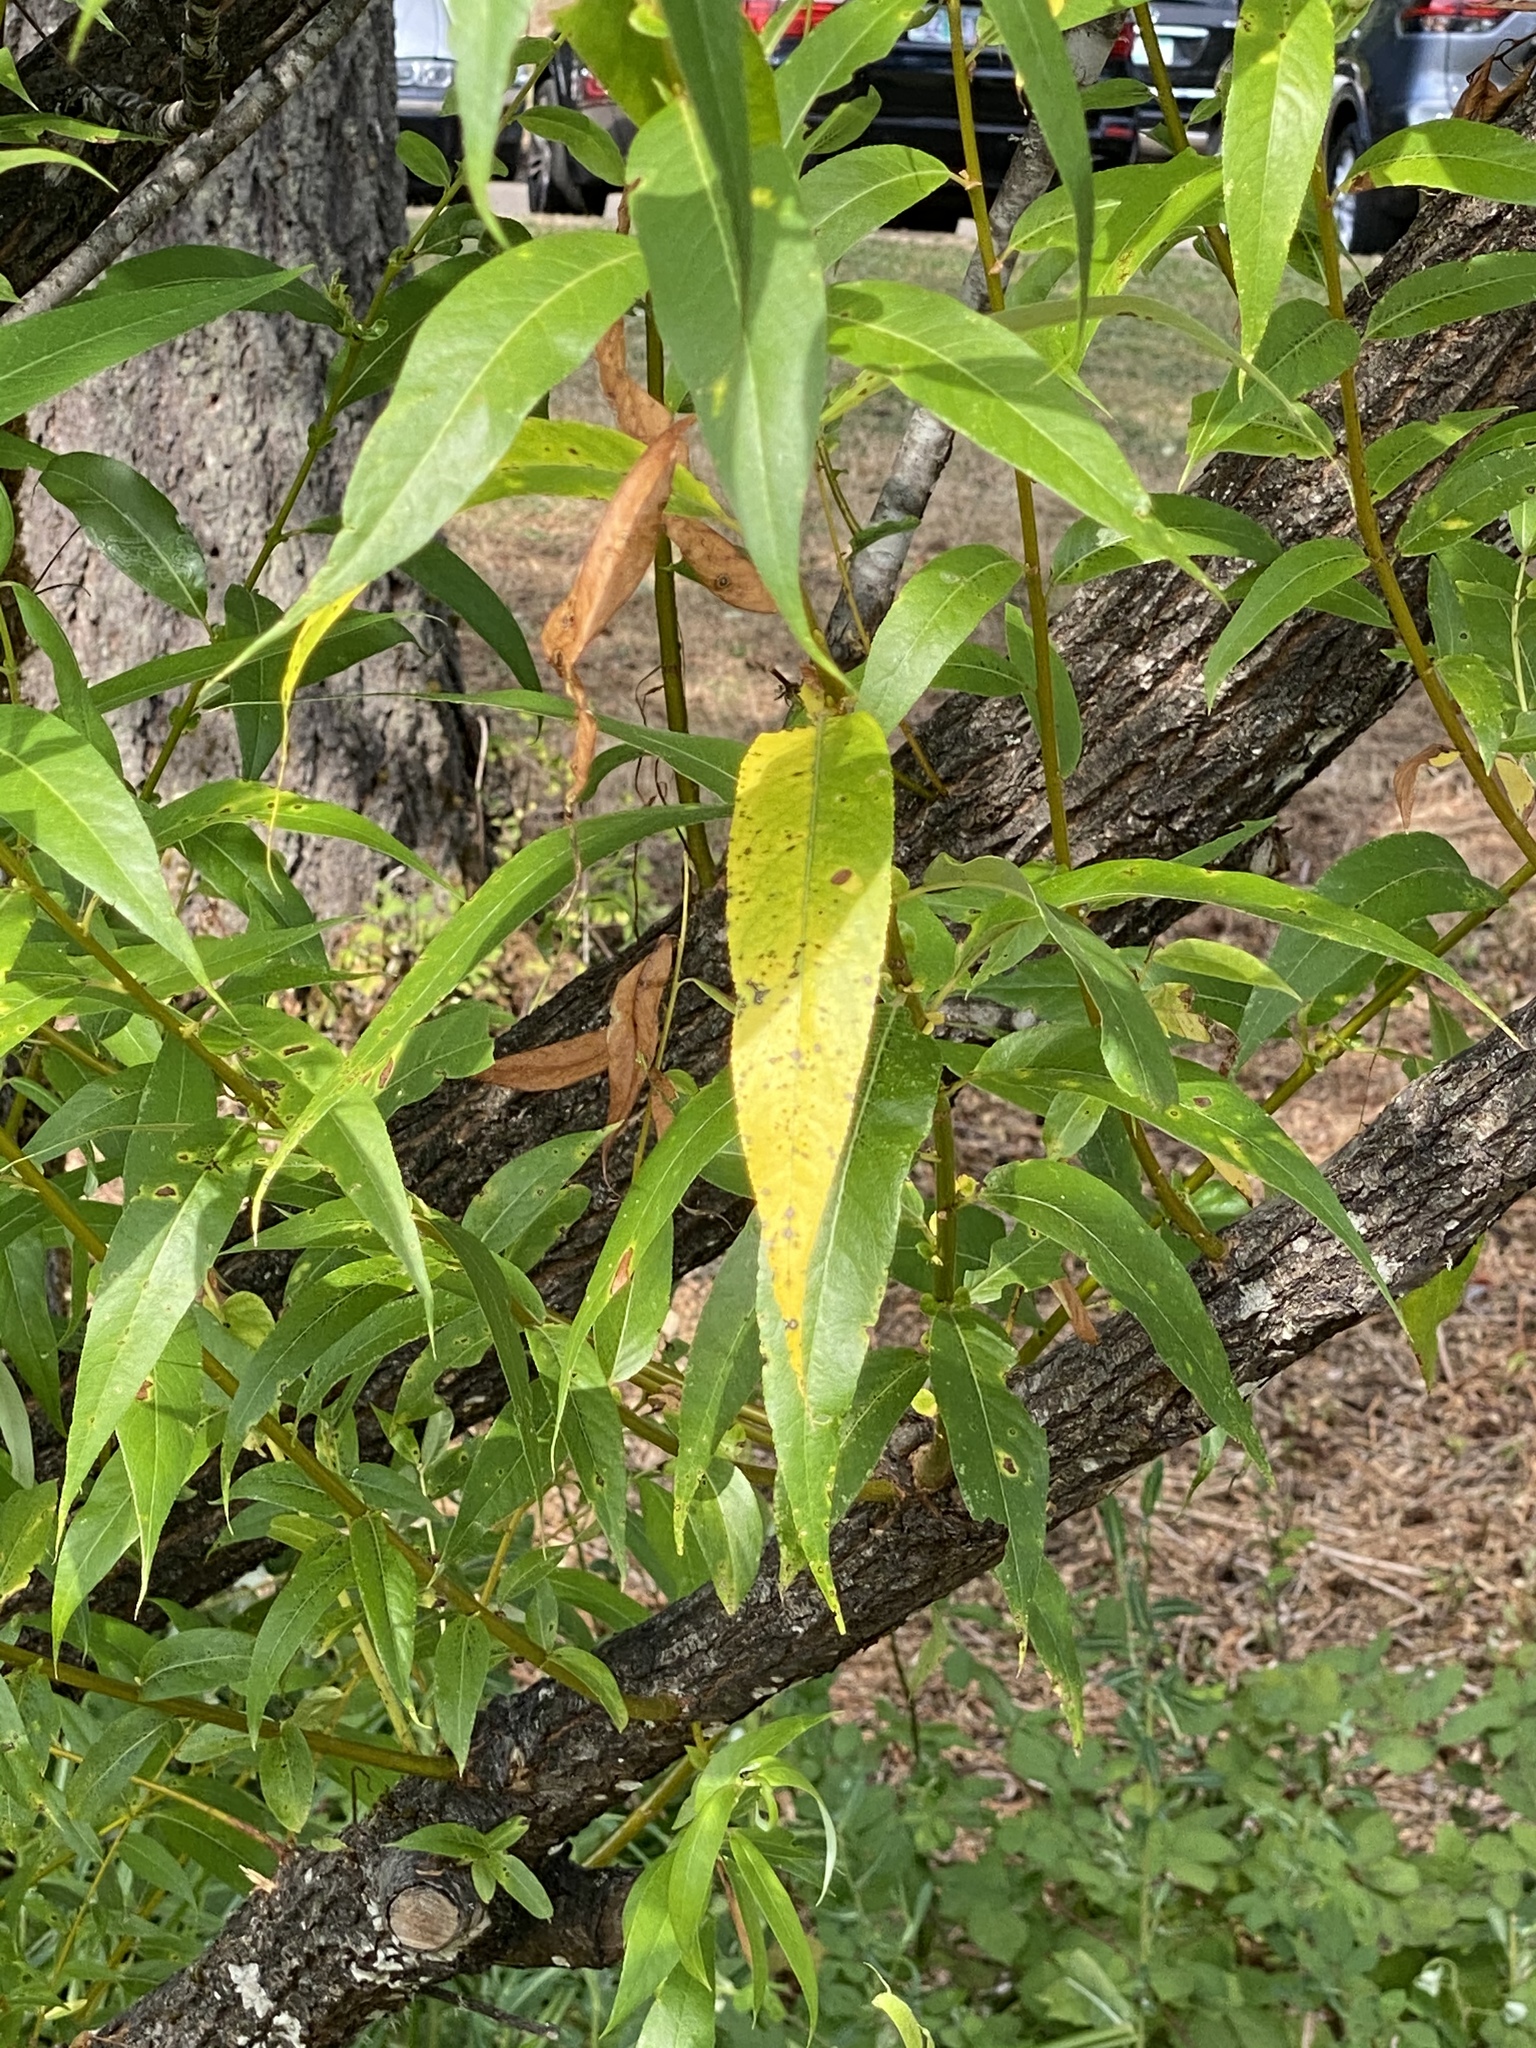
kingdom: Plantae
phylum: Tracheophyta
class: Magnoliopsida
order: Malpighiales
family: Salicaceae
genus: Salix
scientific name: Salix lucida
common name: Shining willow
